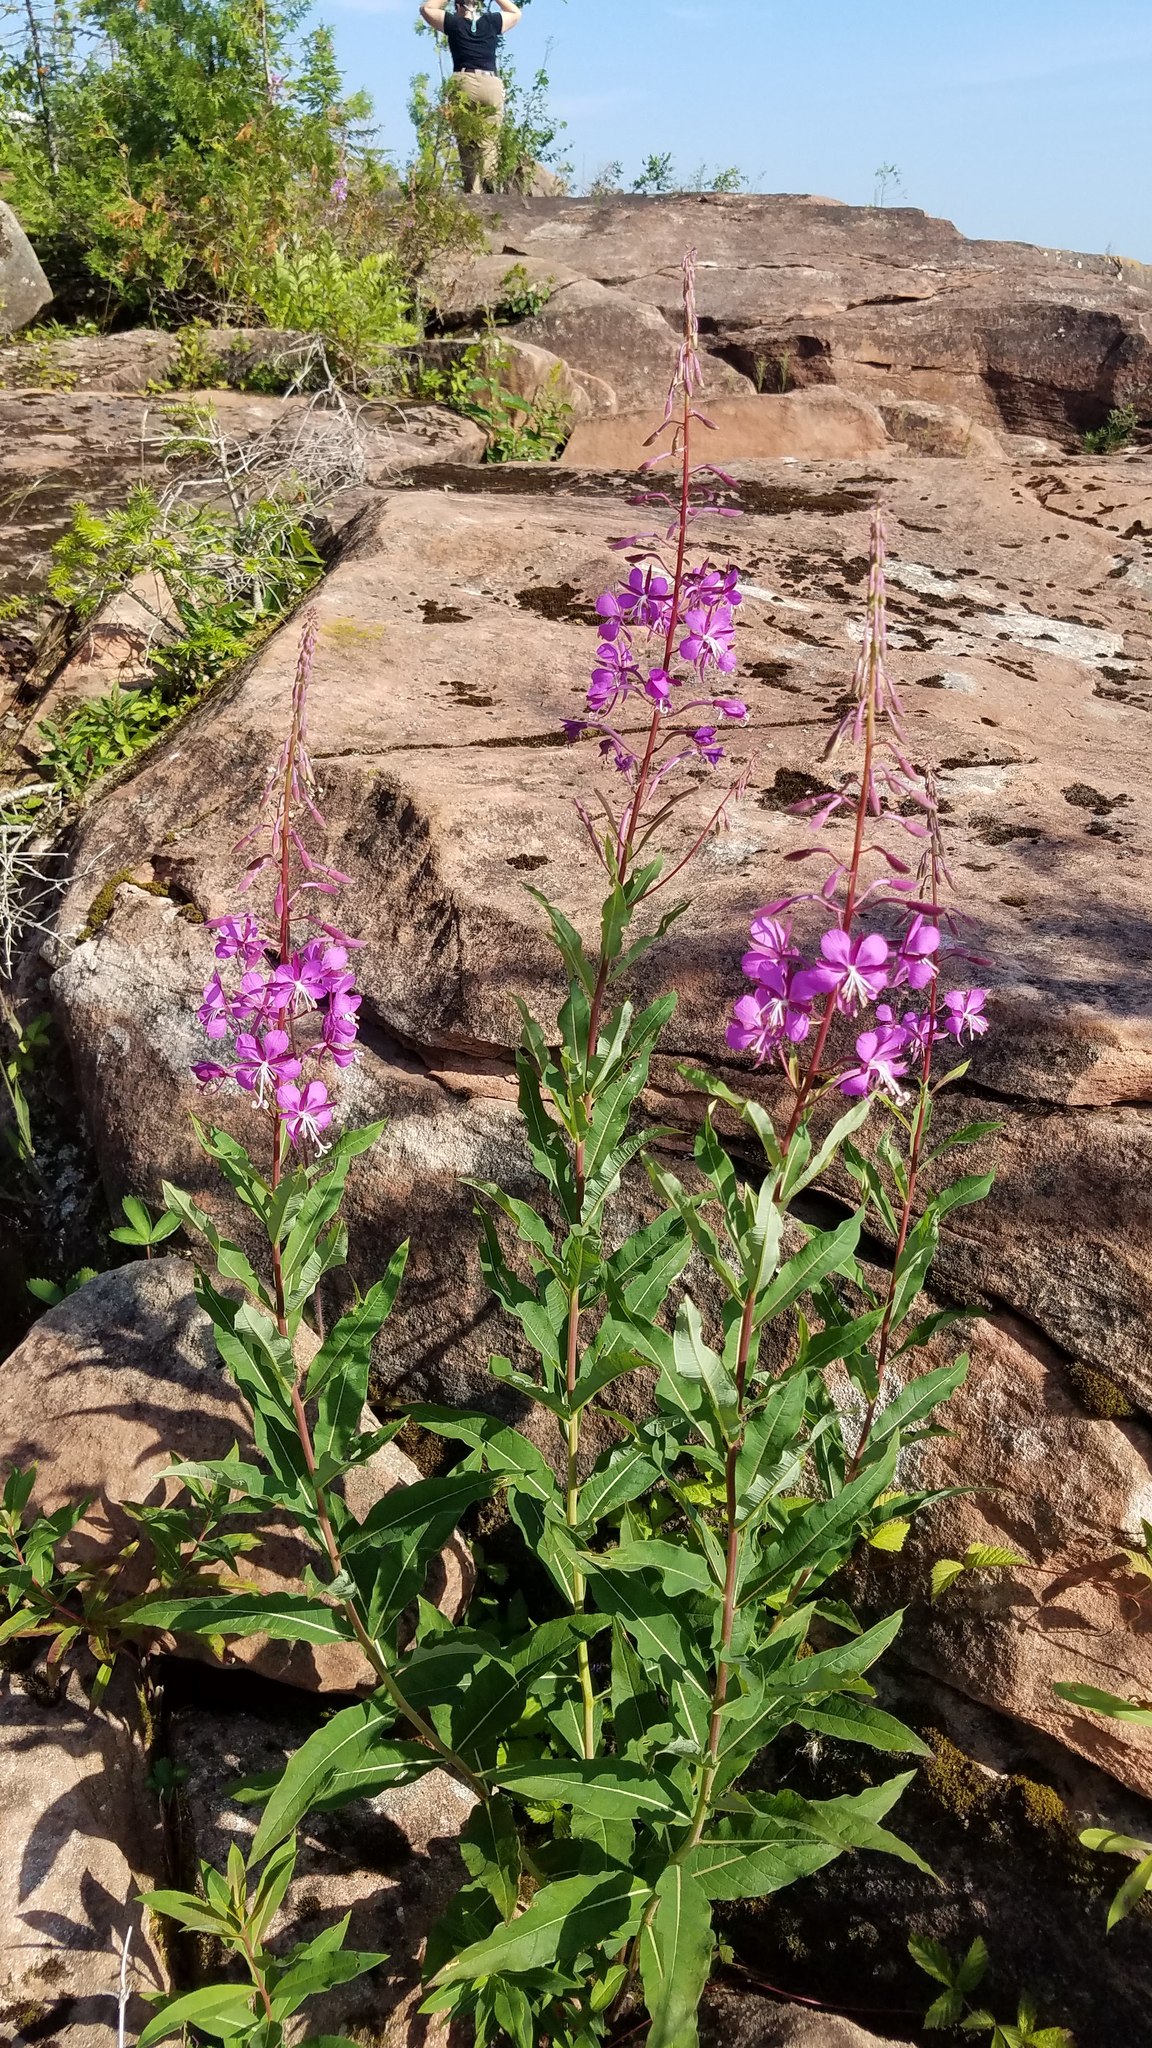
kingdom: Plantae
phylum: Tracheophyta
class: Magnoliopsida
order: Myrtales
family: Onagraceae
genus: Chamaenerion
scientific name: Chamaenerion angustifolium
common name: Fireweed
